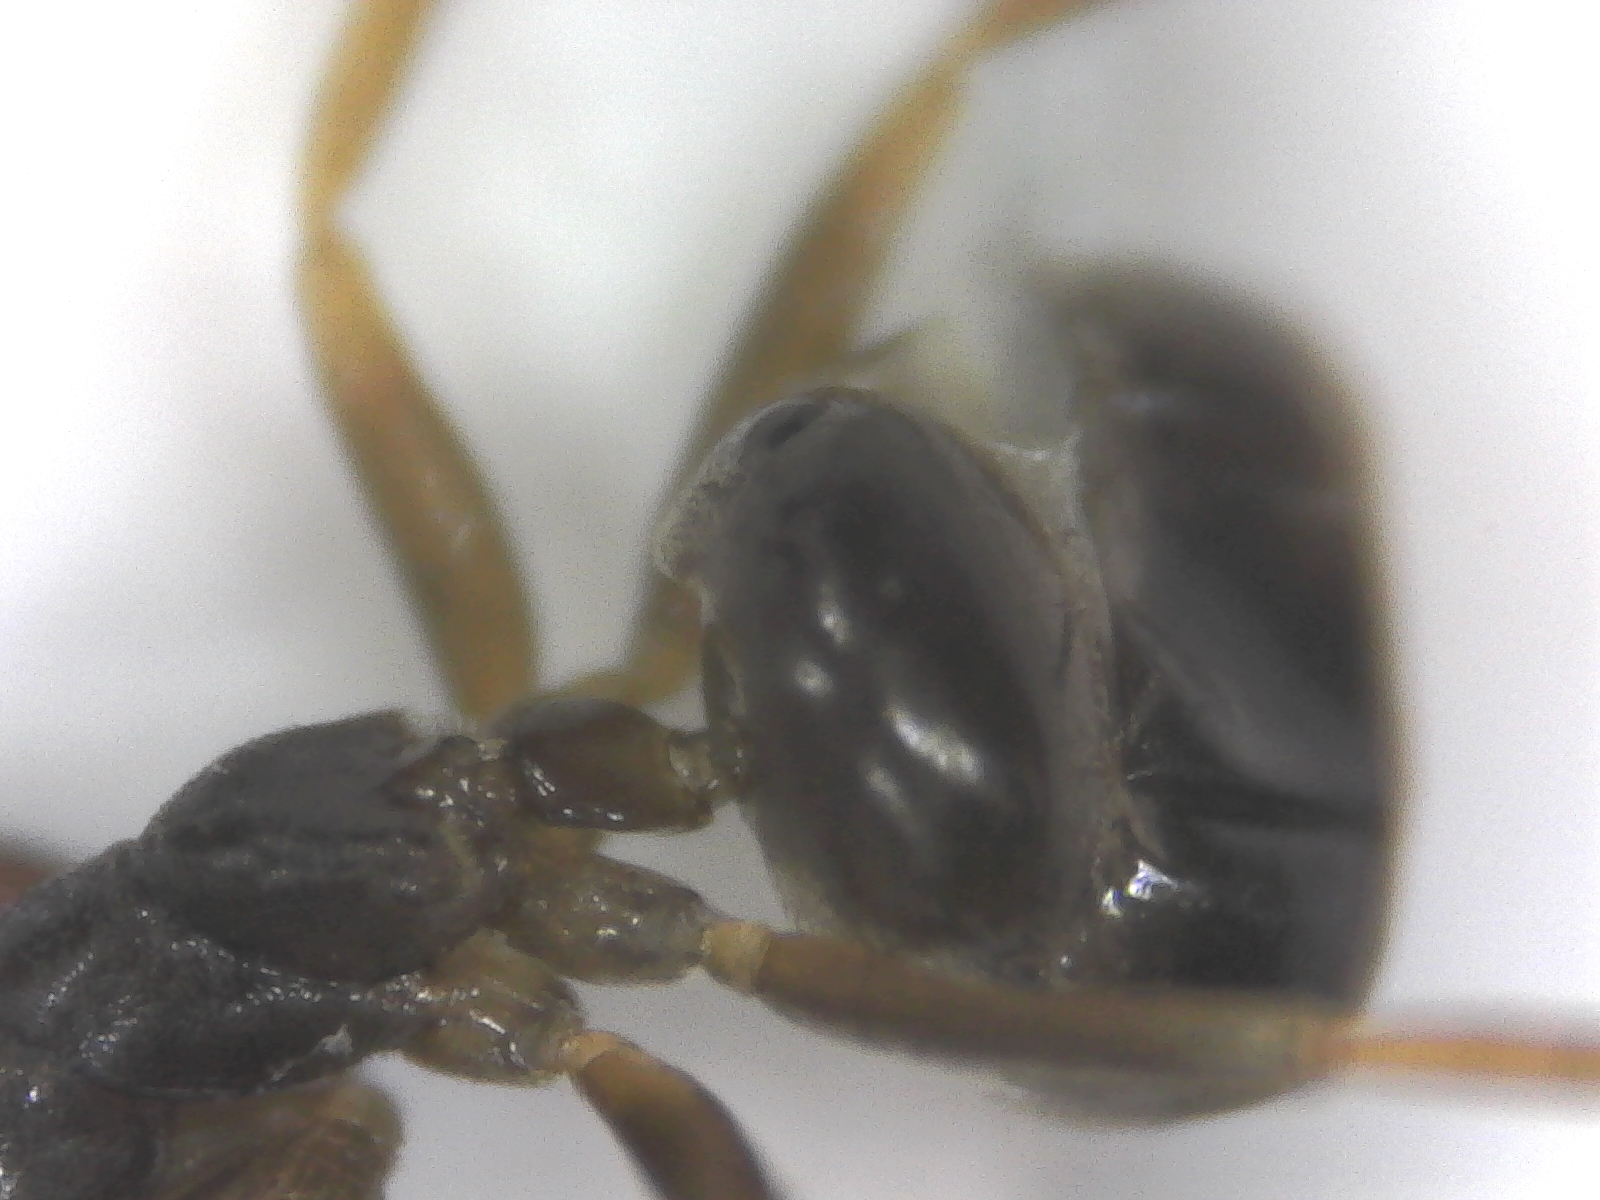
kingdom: Animalia
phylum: Arthropoda
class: Insecta
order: Hymenoptera
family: Formicidae
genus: Tapinoma
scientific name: Tapinoma sessile
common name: Odorous house ant
